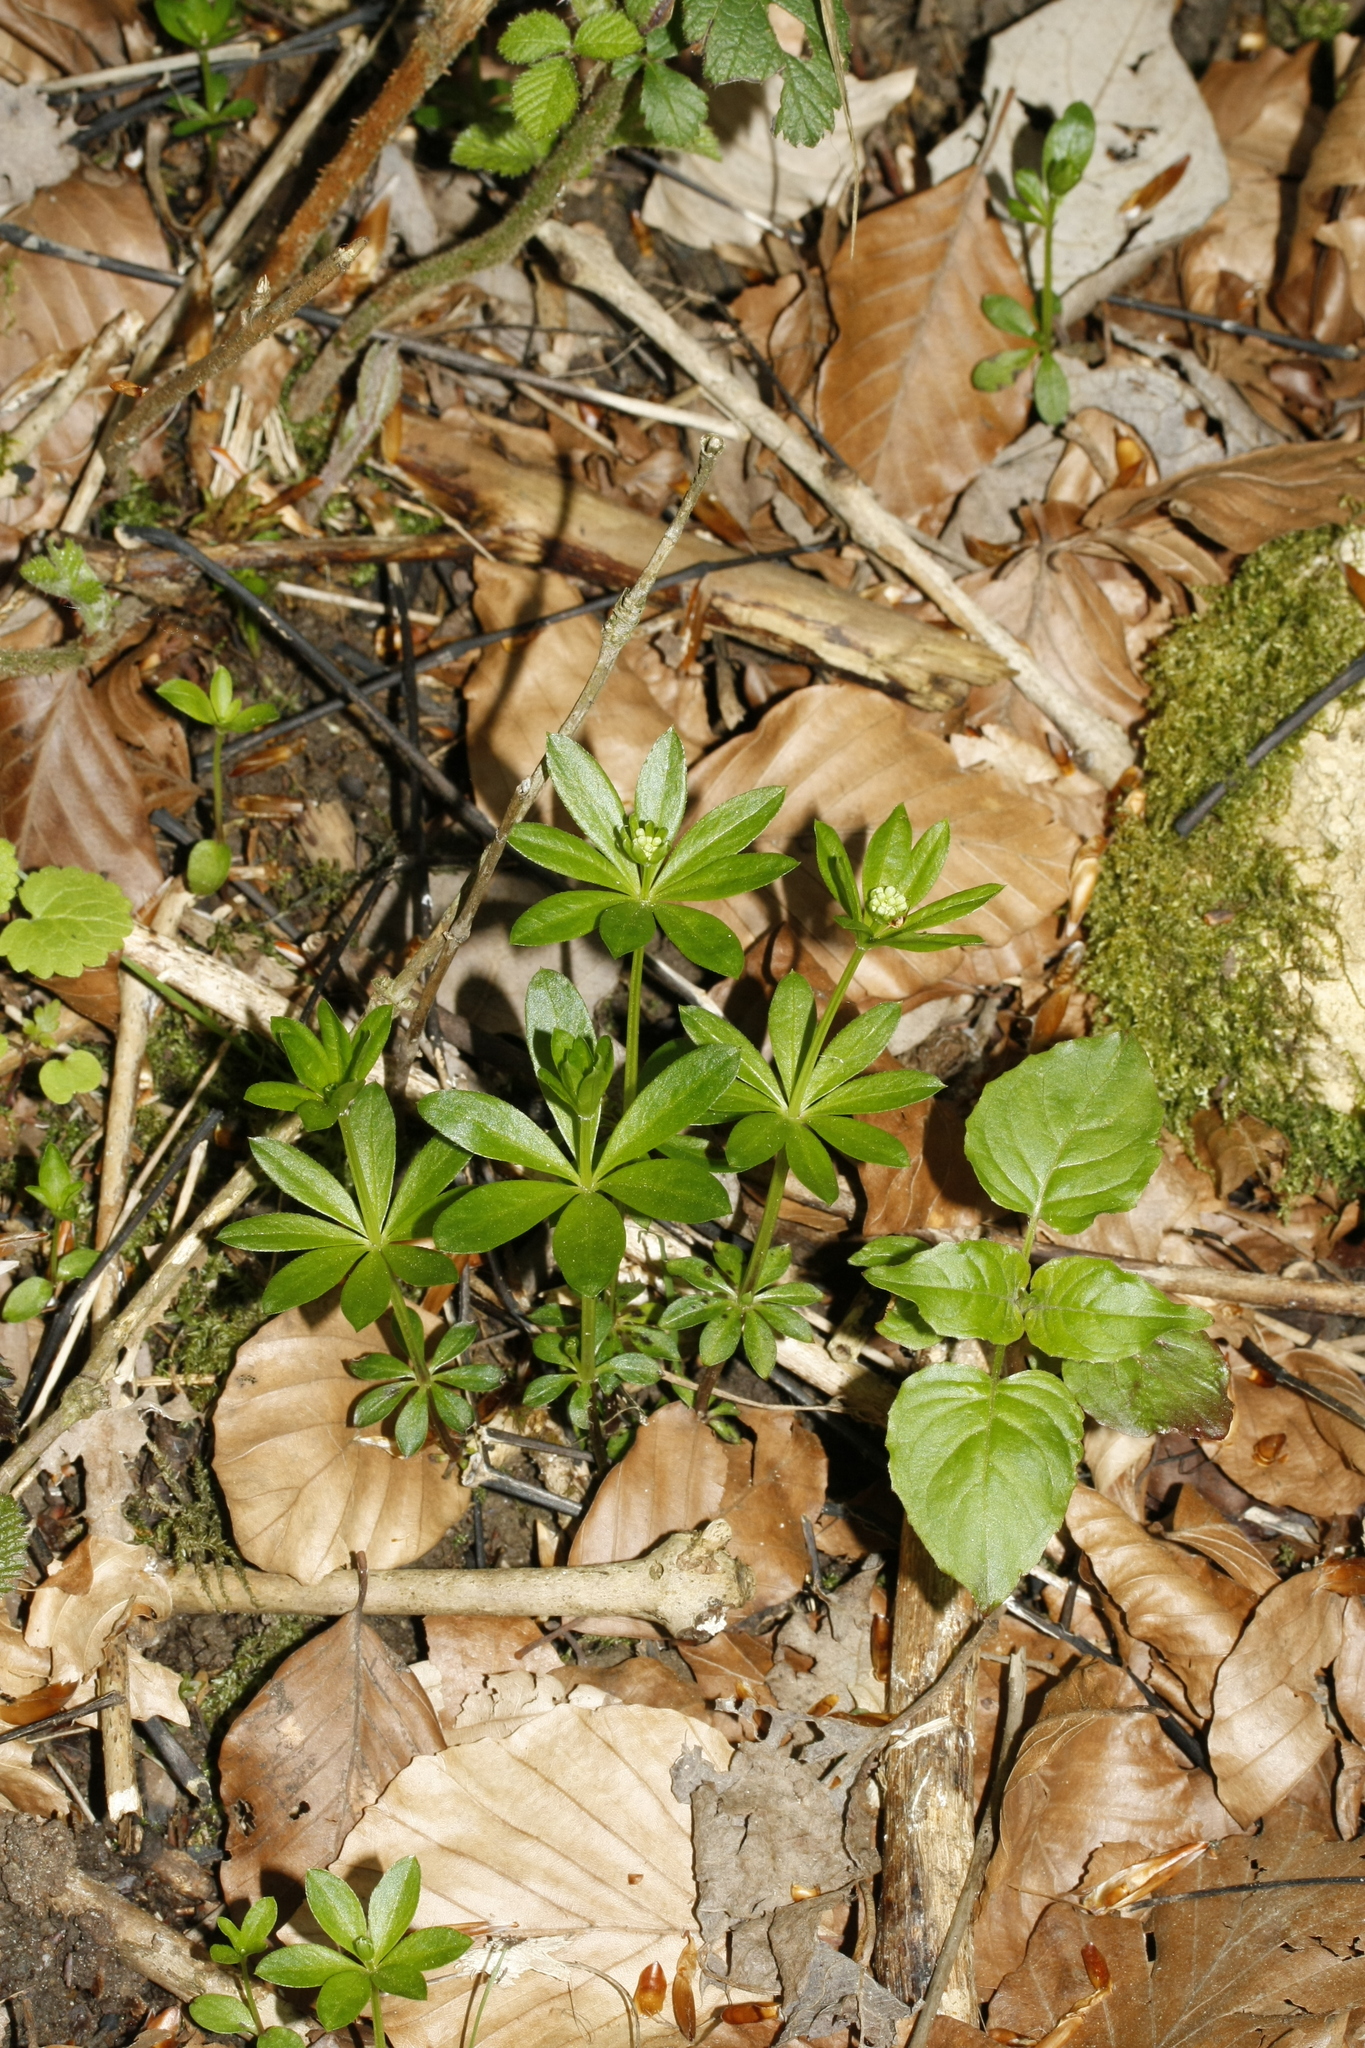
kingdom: Plantae
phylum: Tracheophyta
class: Magnoliopsida
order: Gentianales
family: Rubiaceae
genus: Galium
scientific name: Galium odoratum
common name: Sweet woodruff
